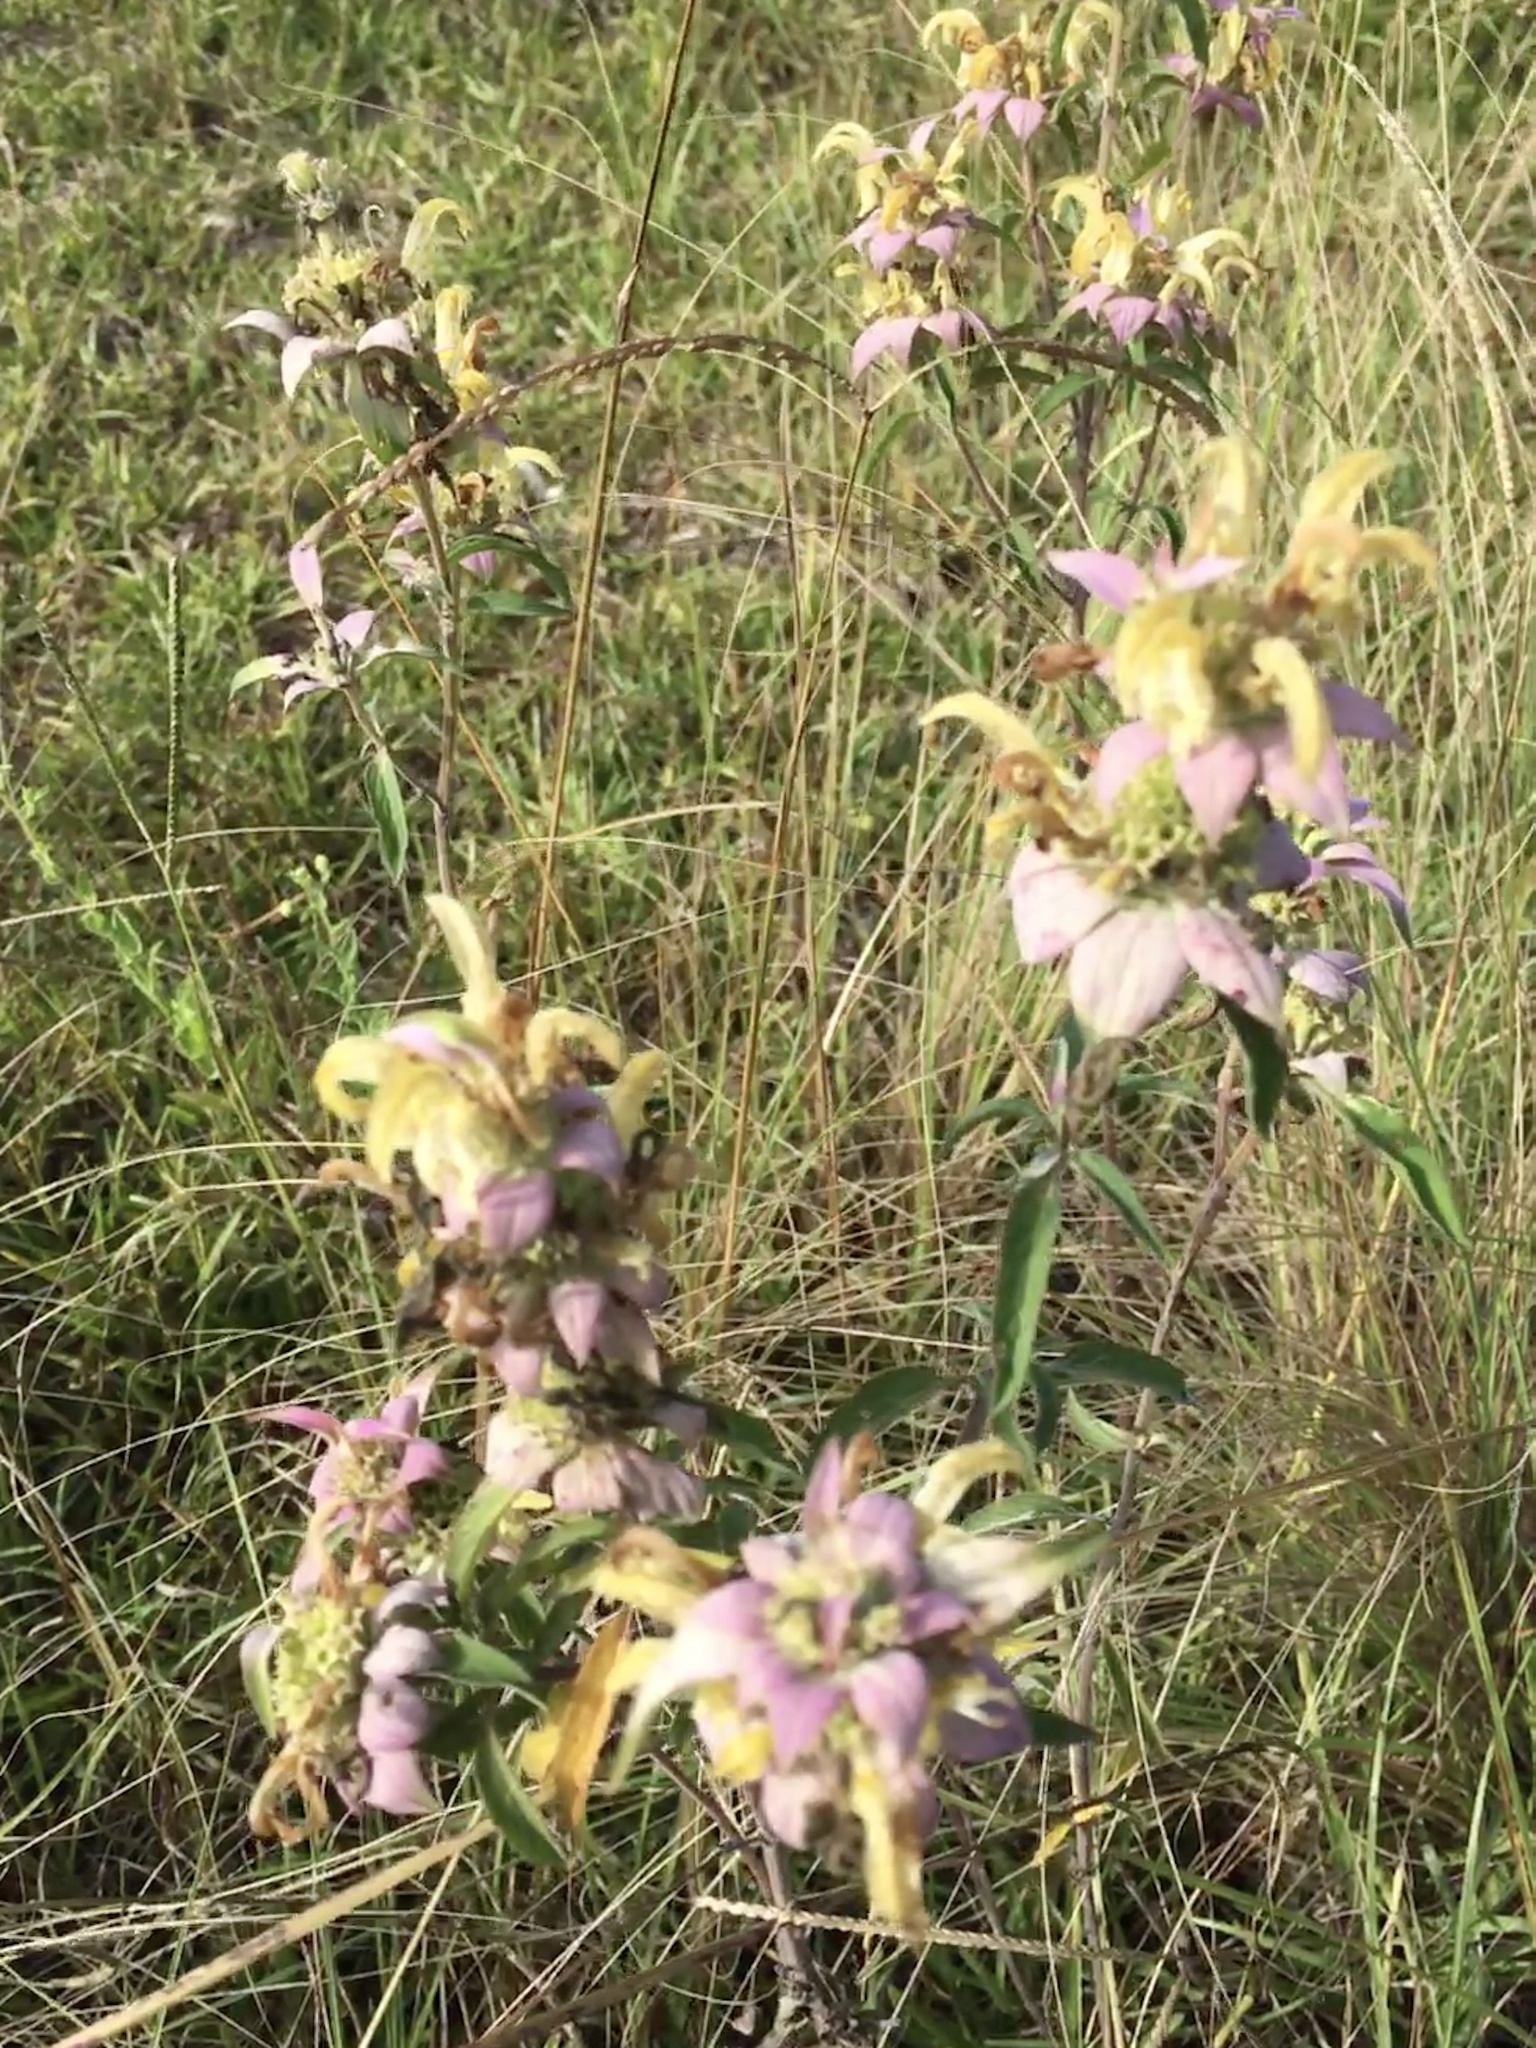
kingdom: Plantae
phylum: Tracheophyta
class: Magnoliopsida
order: Lamiales
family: Lamiaceae
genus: Monarda
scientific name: Monarda punctata
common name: Dotted monarda
